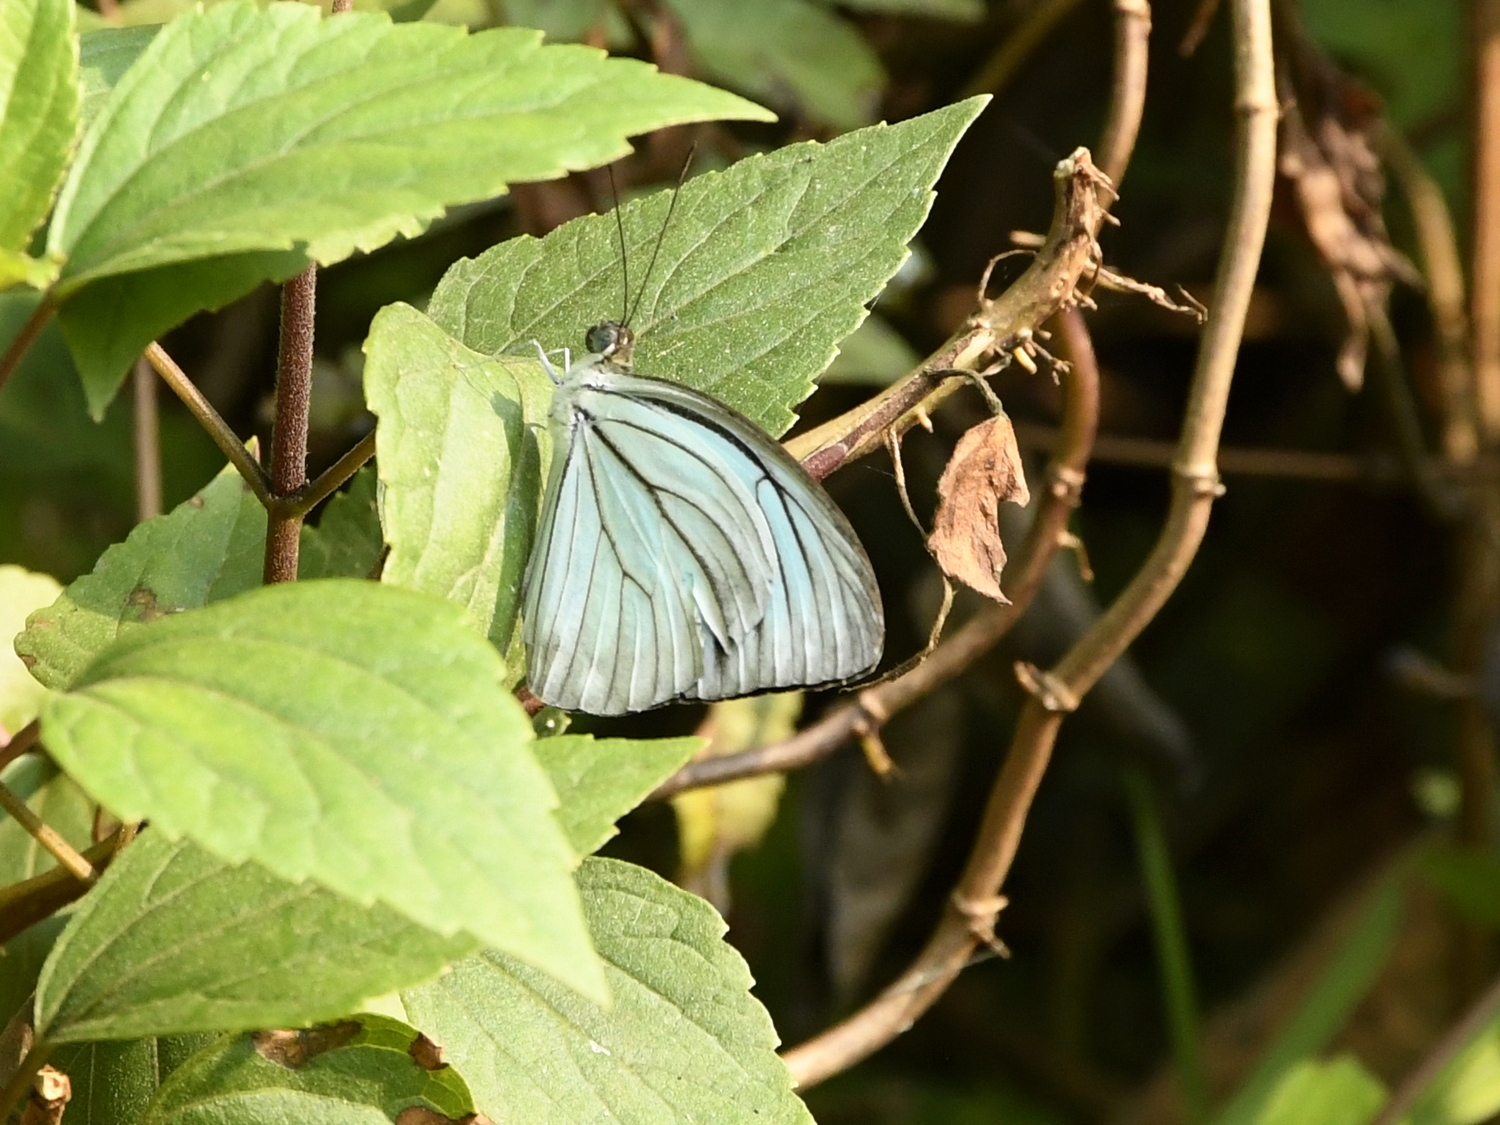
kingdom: Animalia
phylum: Arthropoda
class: Insecta
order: Lepidoptera
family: Pieridae
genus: Pareronia
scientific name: Pareronia hippia
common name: Indian wanderer
